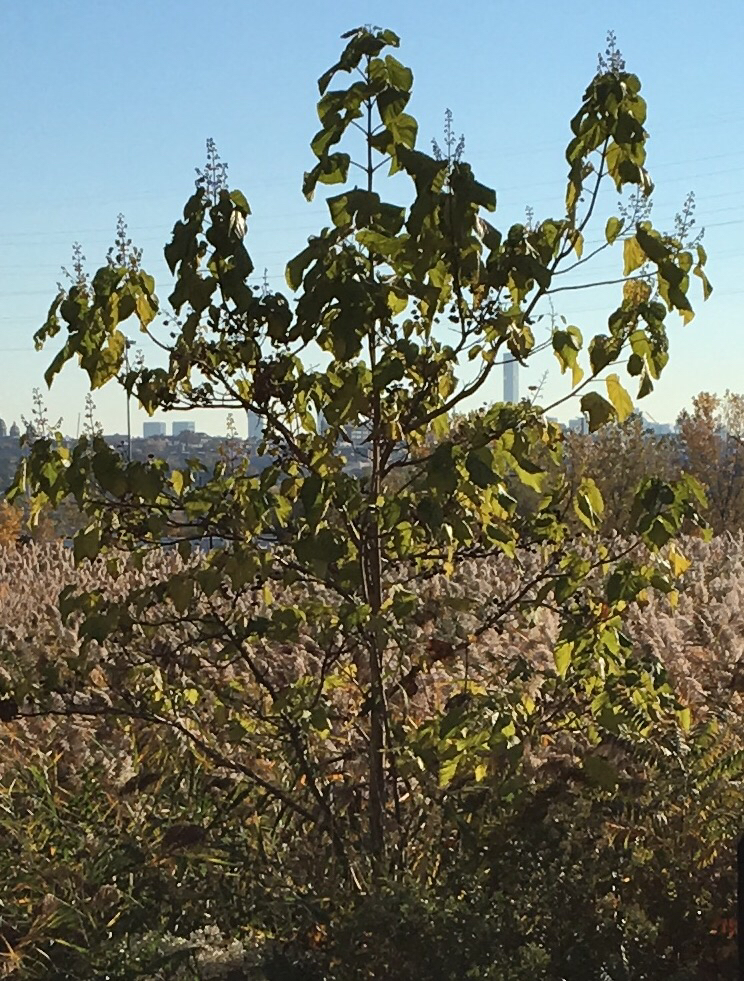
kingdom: Plantae
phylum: Tracheophyta
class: Magnoliopsida
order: Lamiales
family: Paulowniaceae
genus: Paulownia
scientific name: Paulownia tomentosa
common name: Foxglove-tree
